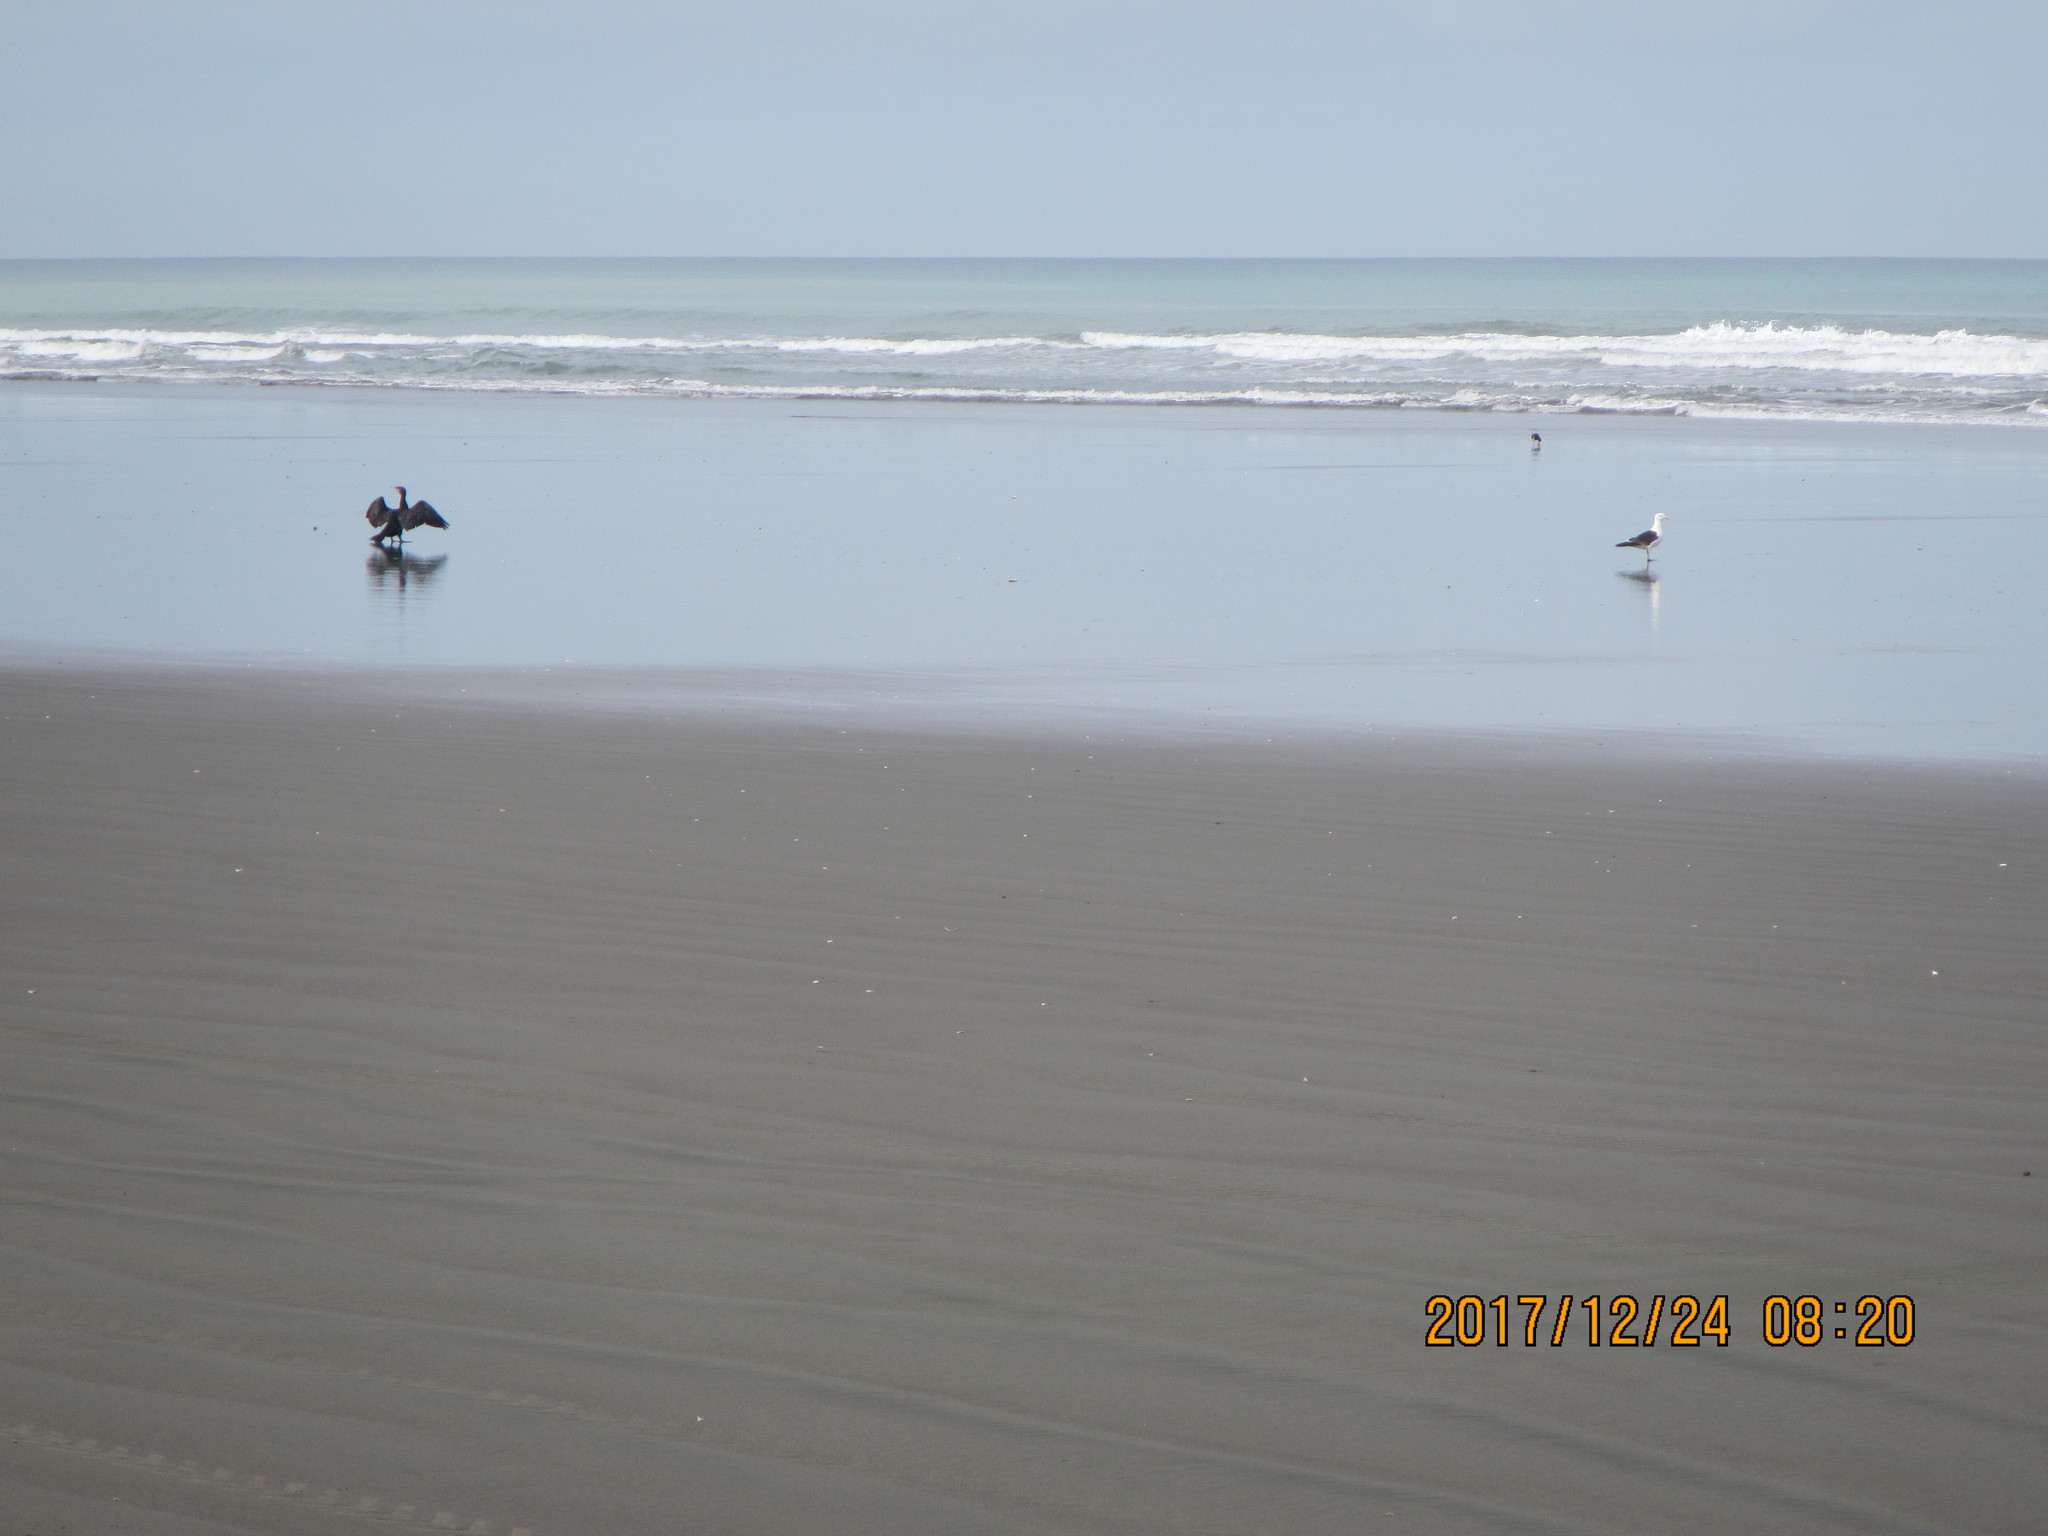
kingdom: Animalia
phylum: Chordata
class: Aves
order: Charadriiformes
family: Haematopodidae
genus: Haematopus
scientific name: Haematopus finschi
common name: South island oystercatcher
